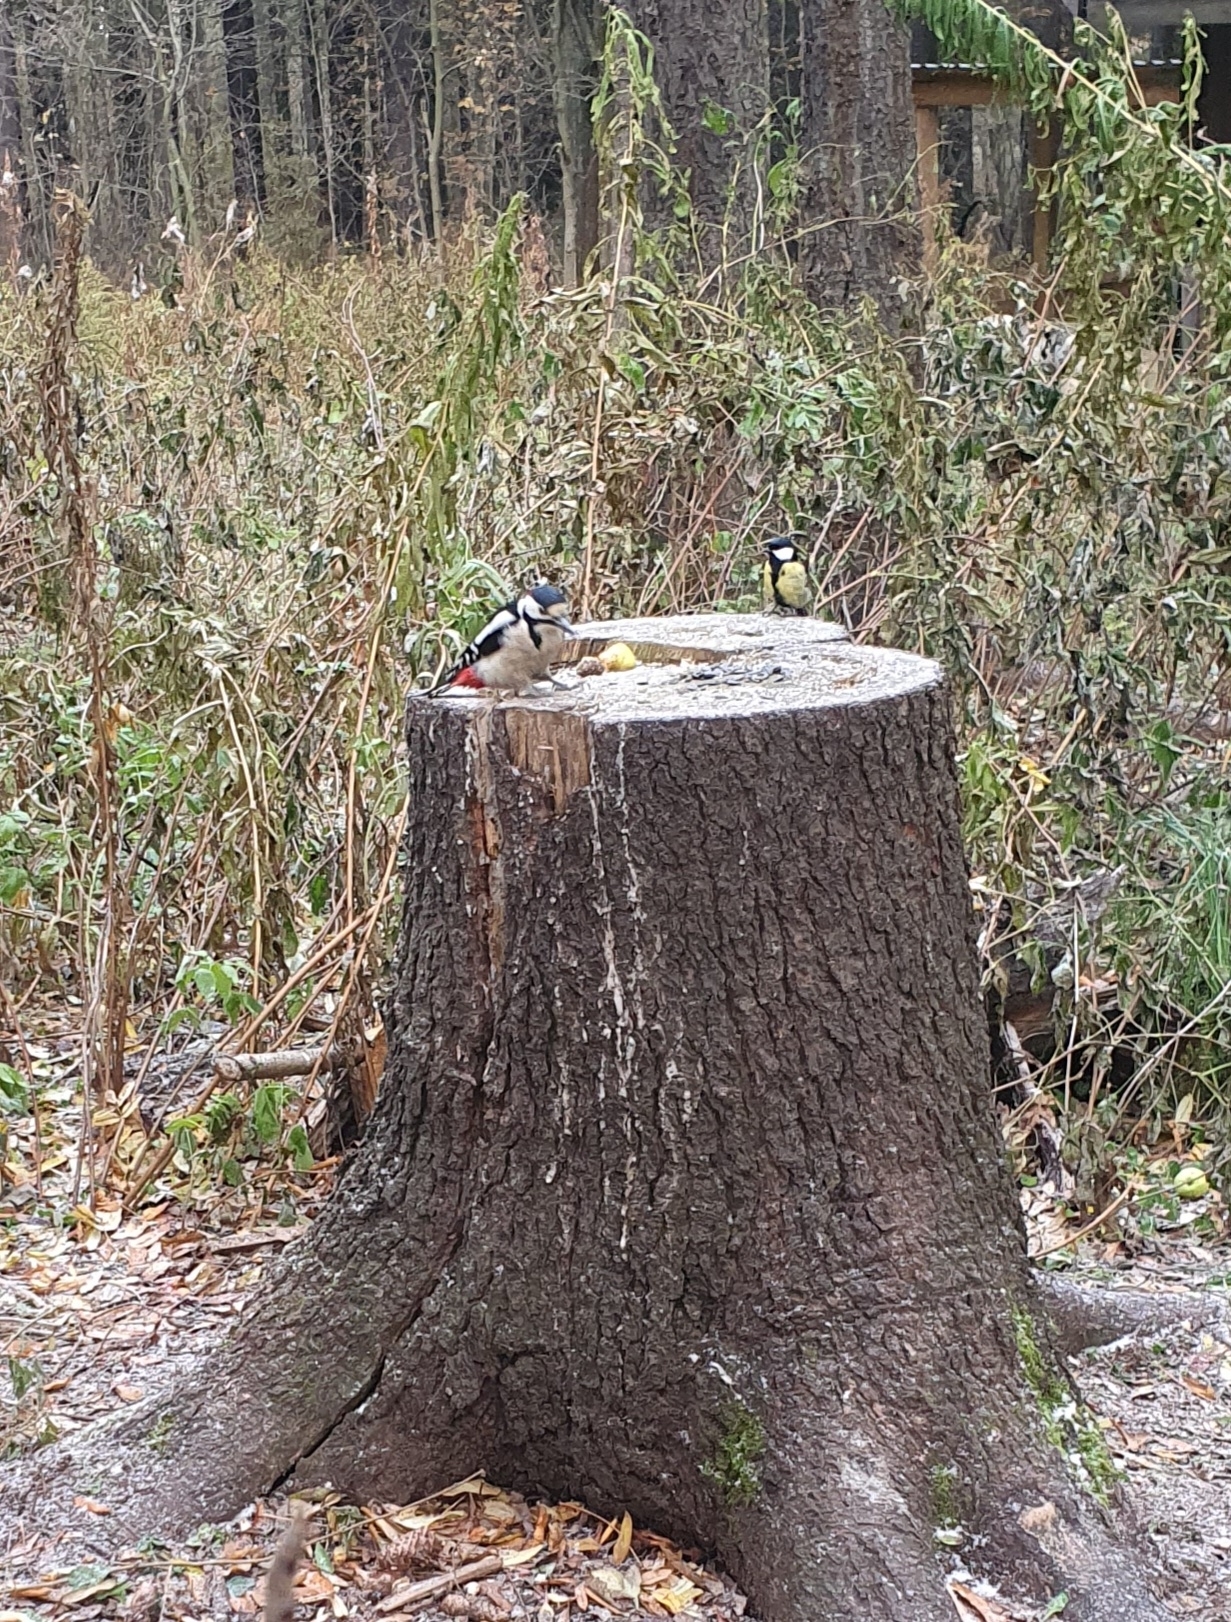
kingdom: Animalia
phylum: Chordata
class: Aves
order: Piciformes
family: Picidae
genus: Dendrocopos
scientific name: Dendrocopos major
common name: Great spotted woodpecker
